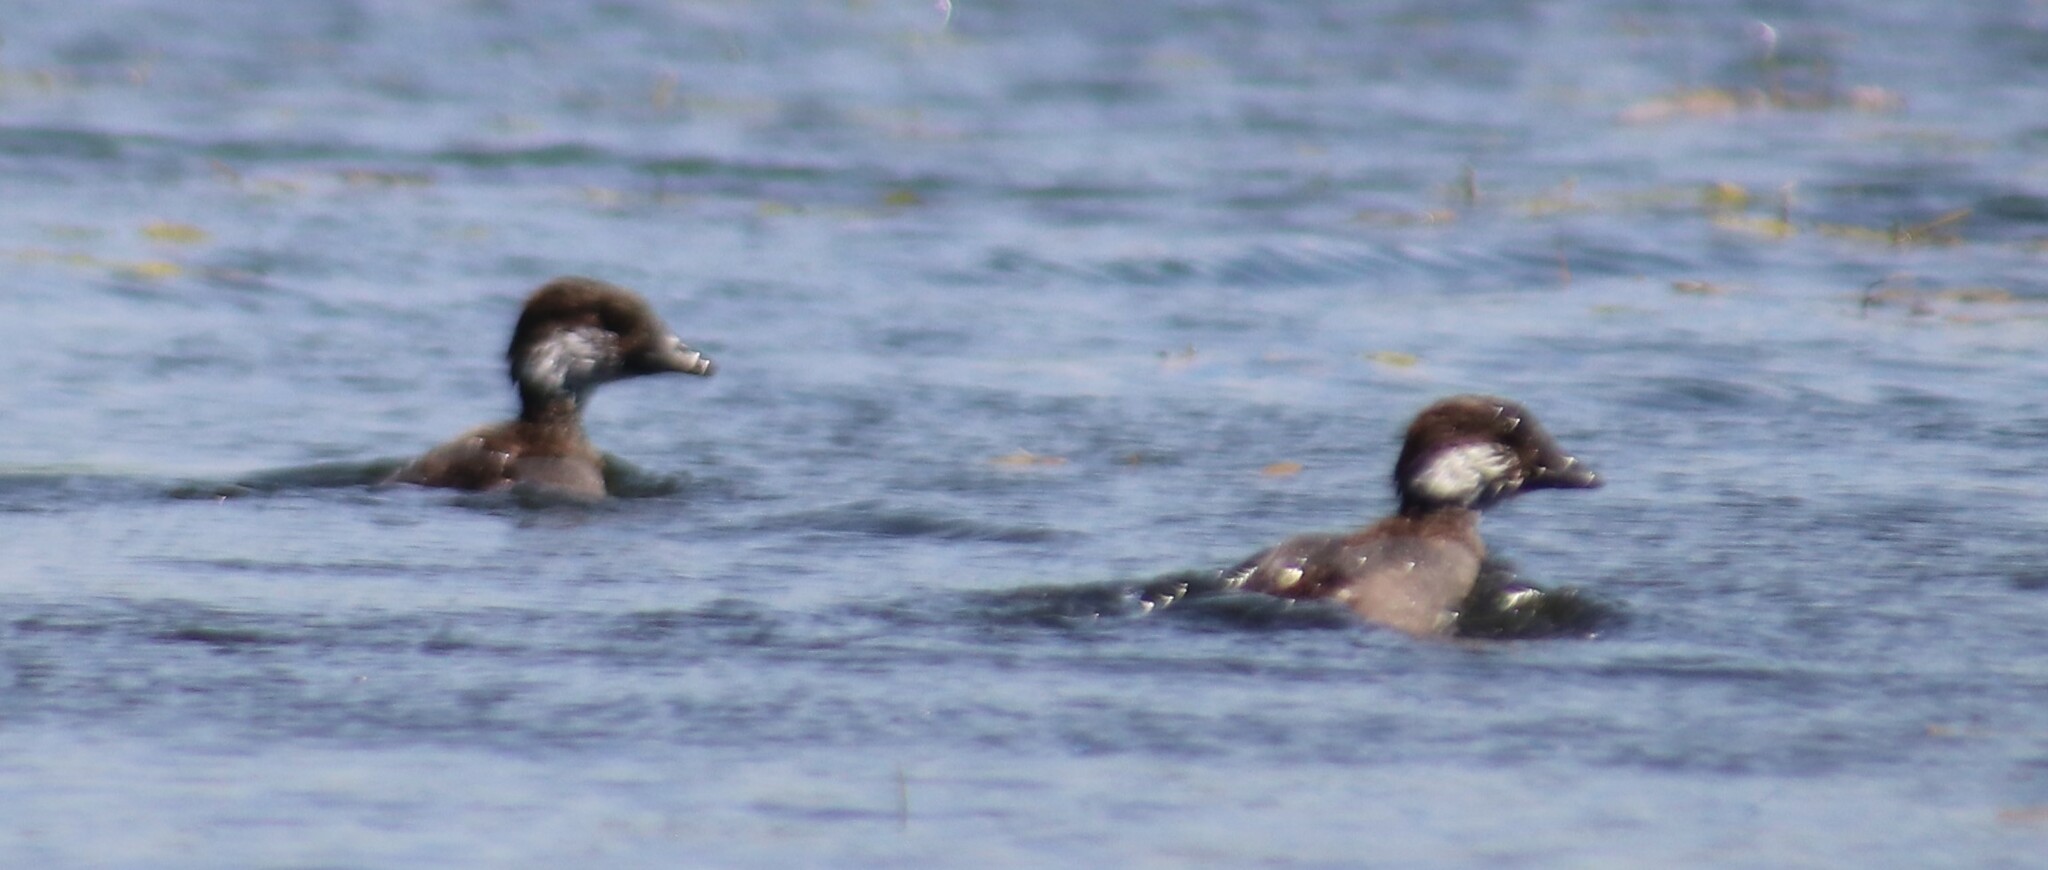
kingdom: Animalia
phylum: Chordata
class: Aves
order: Anseriformes
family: Anatidae
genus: Bucephala
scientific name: Bucephala clangula
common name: Common goldeneye
